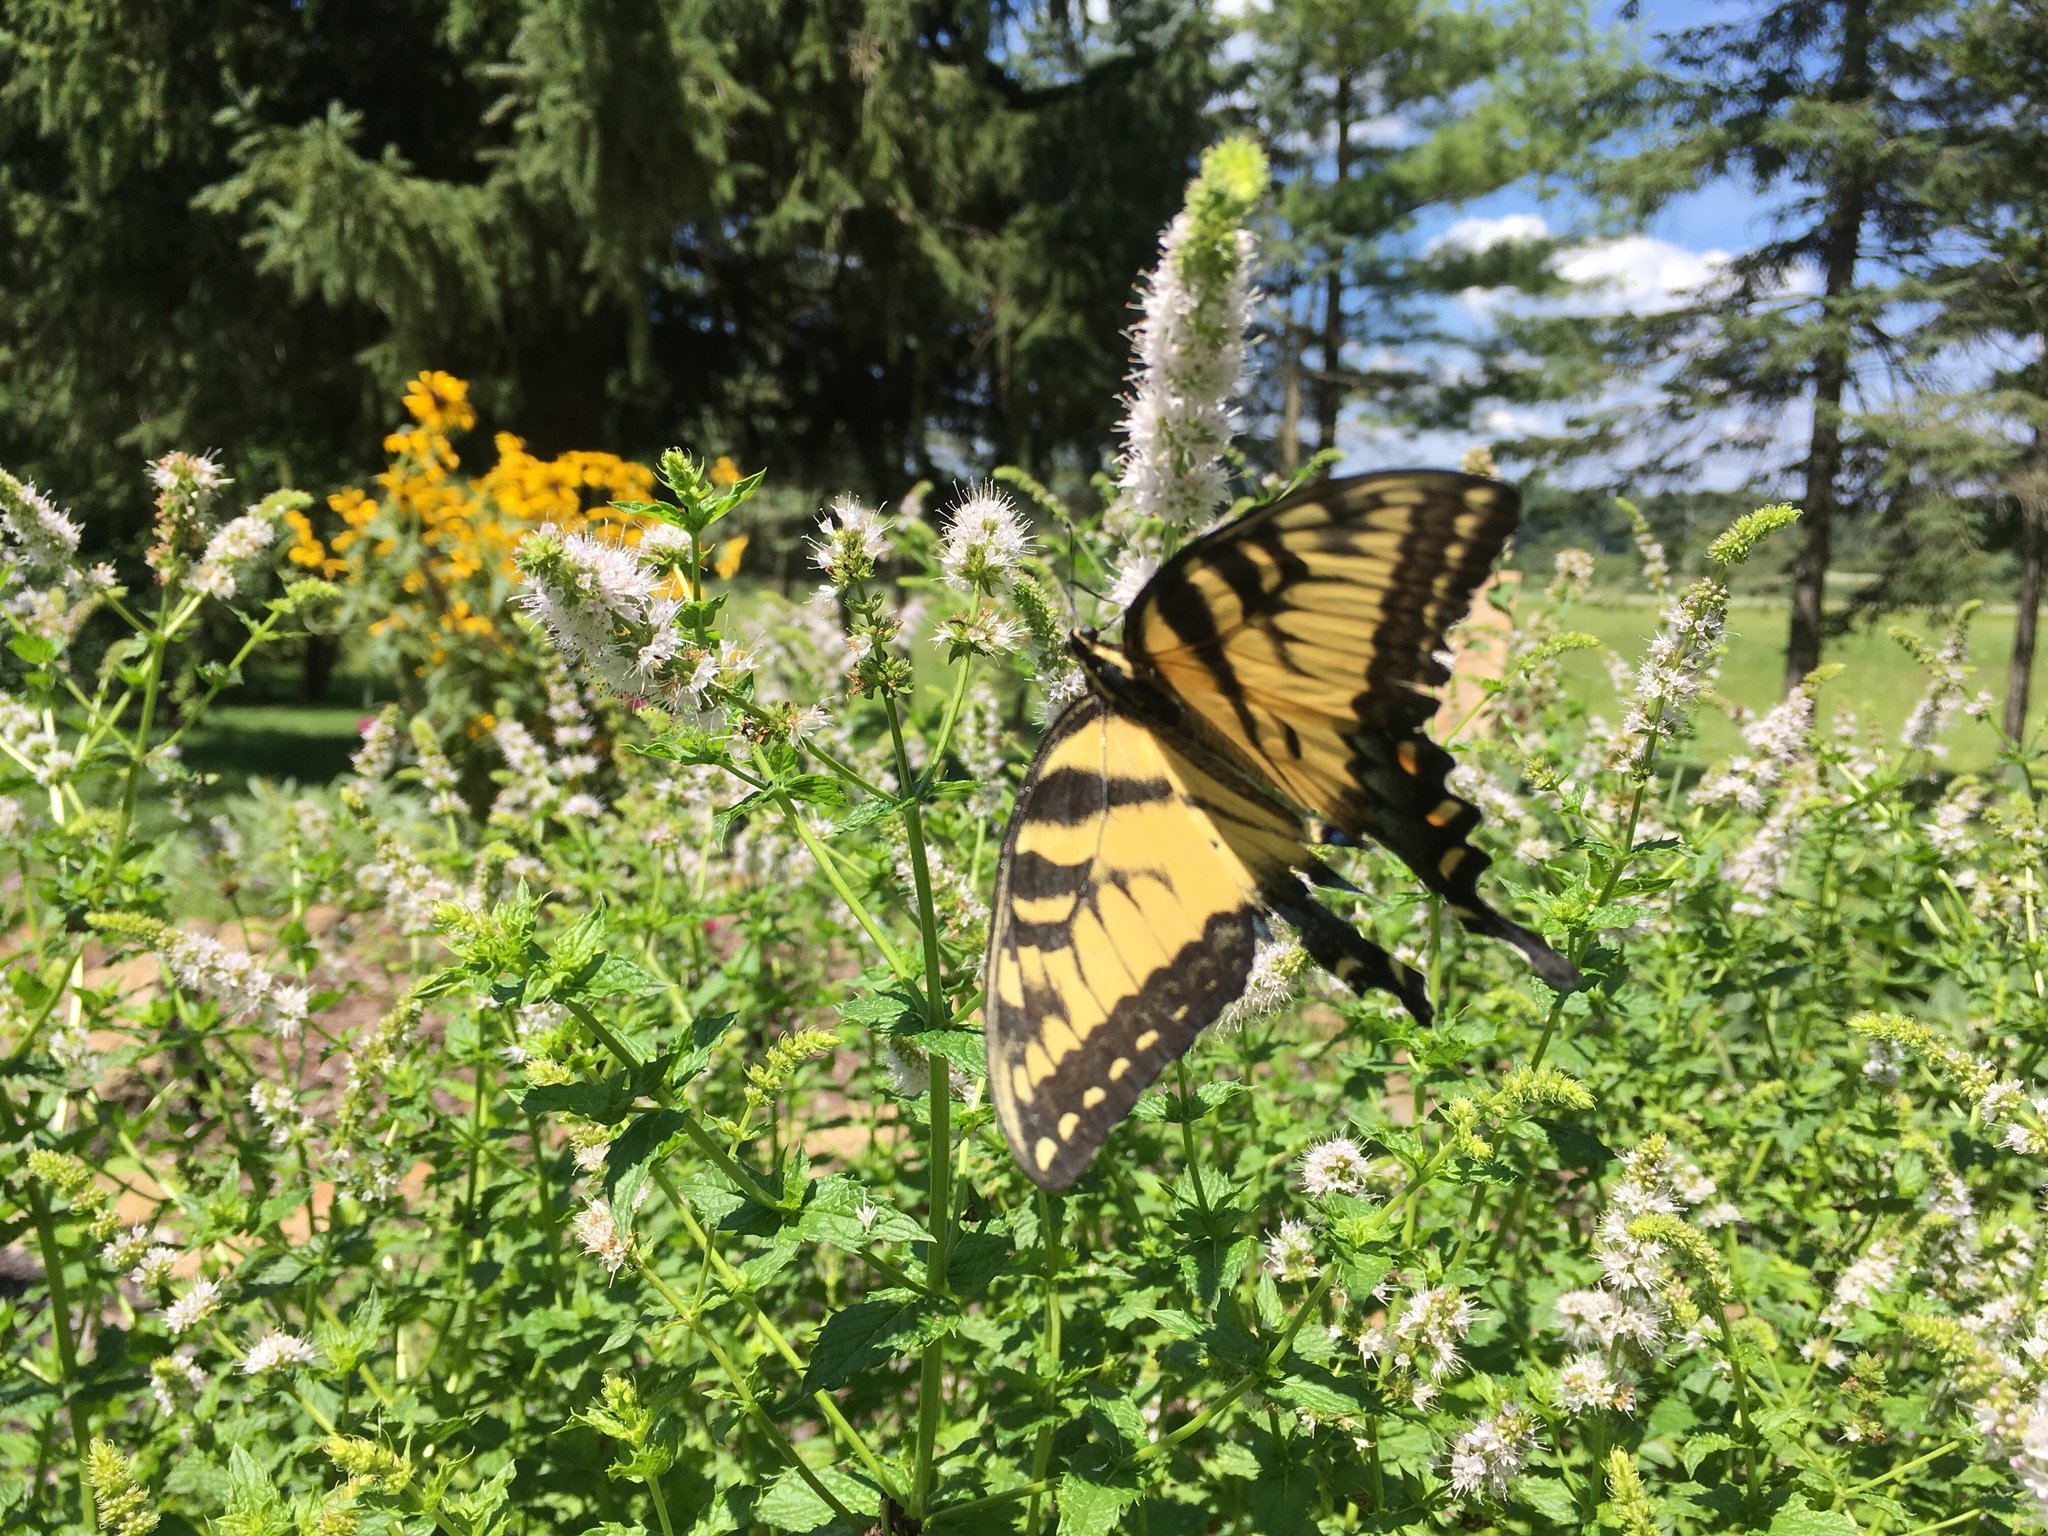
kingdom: Animalia
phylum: Arthropoda
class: Insecta
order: Lepidoptera
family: Papilionidae
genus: Papilio
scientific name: Papilio glaucus
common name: Tiger swallowtail
